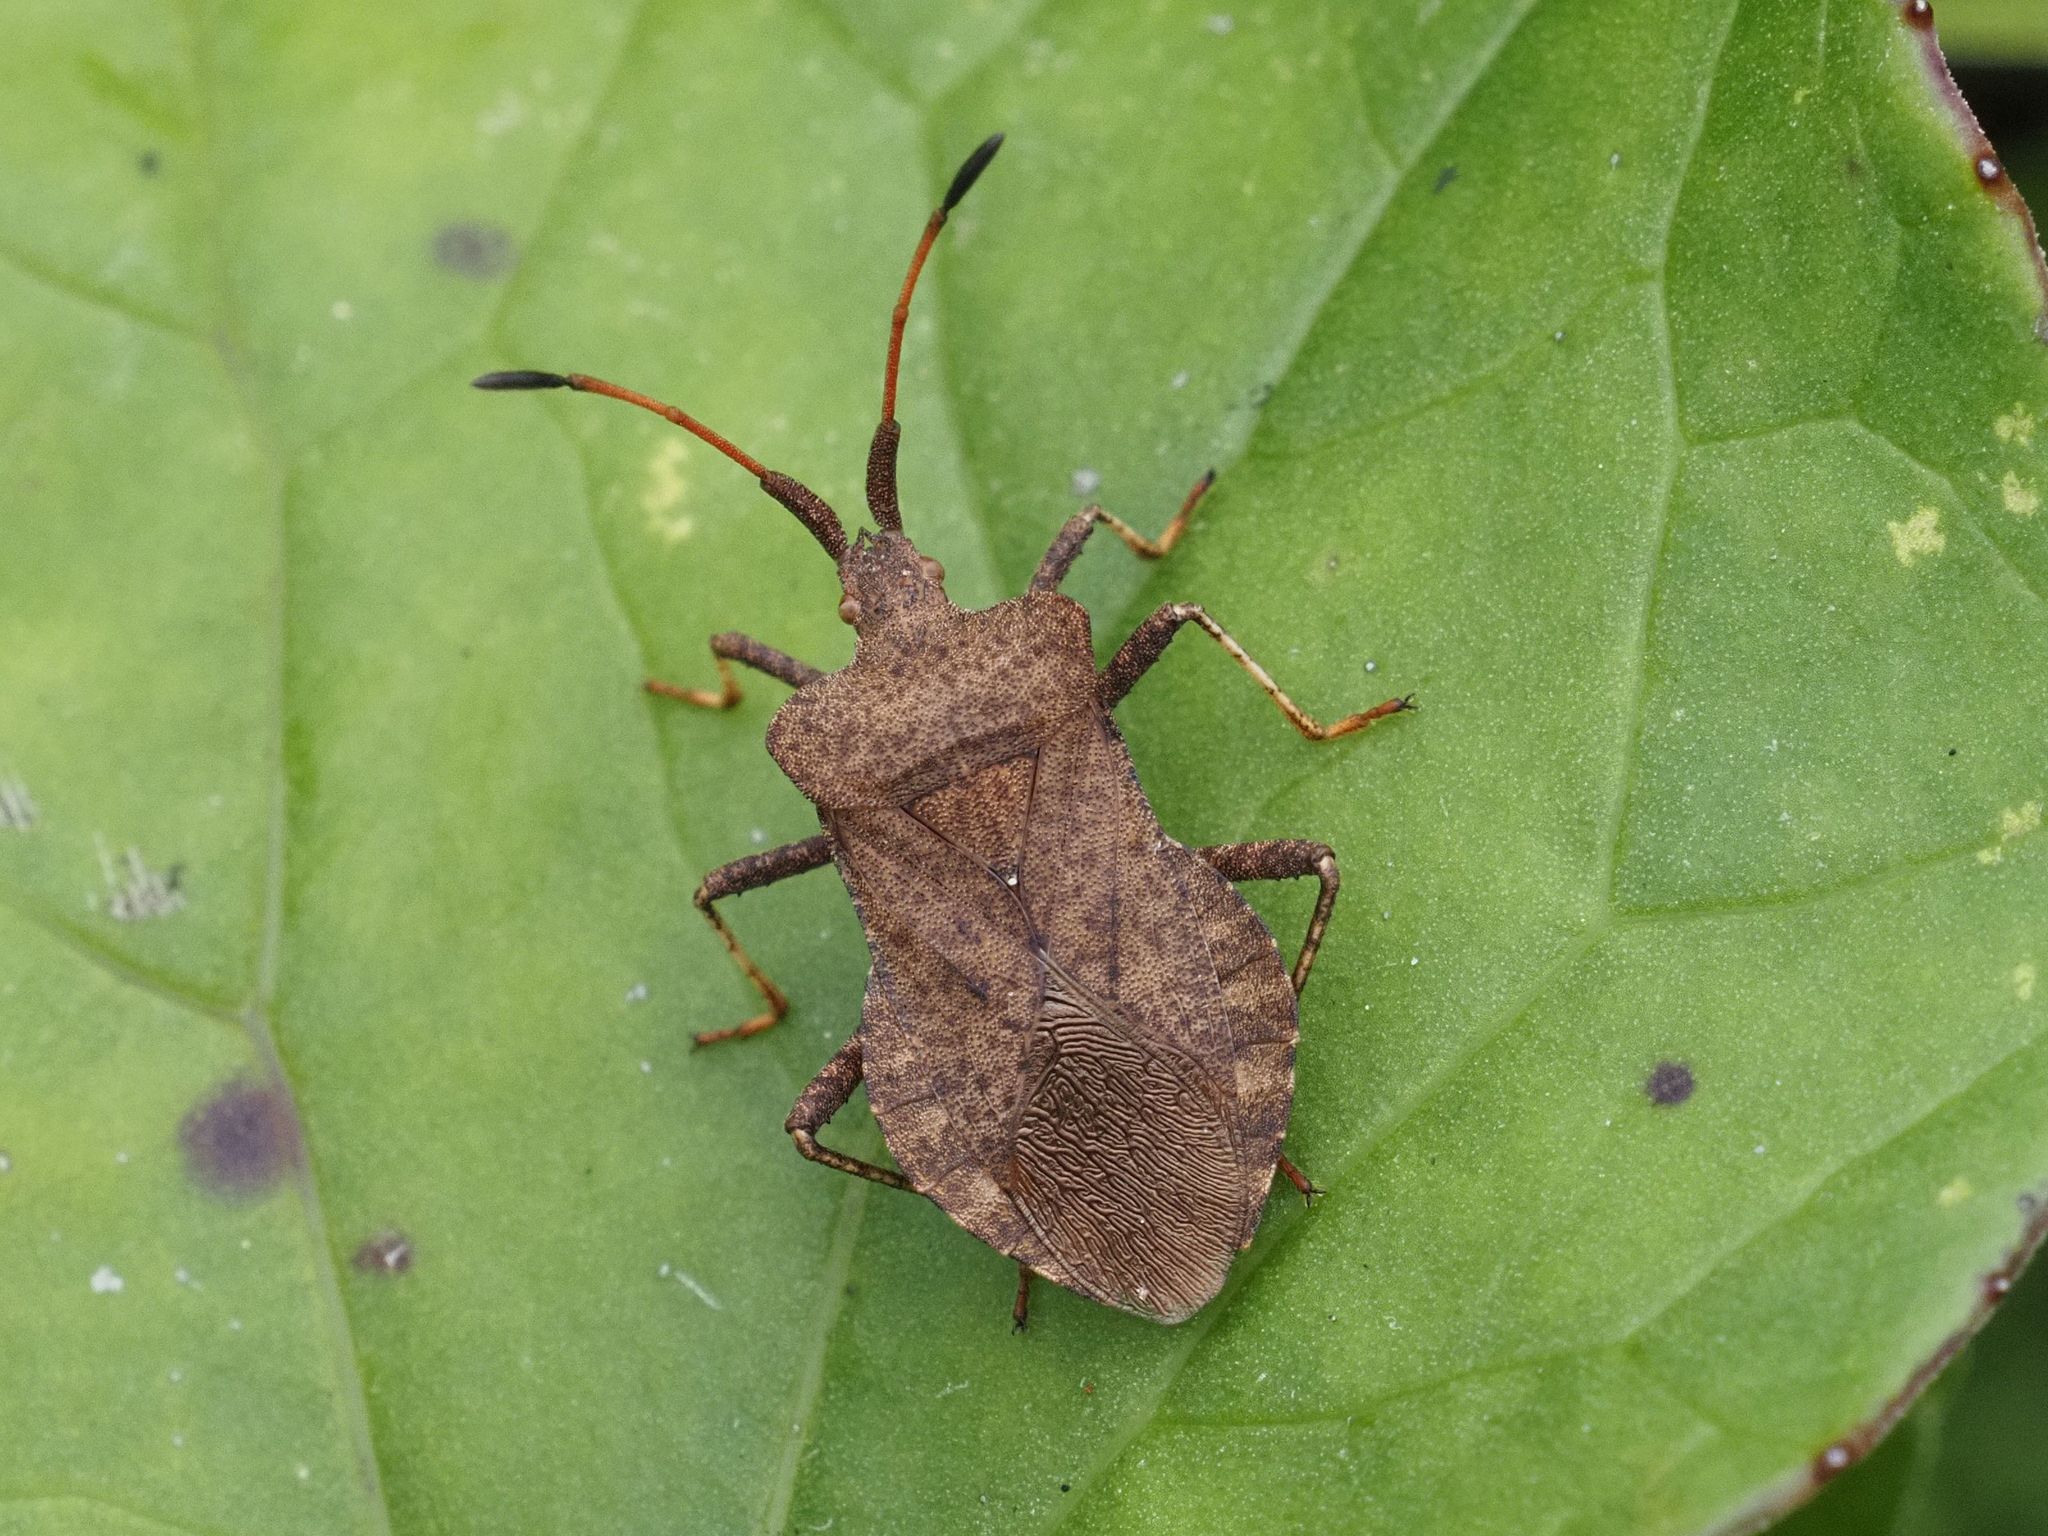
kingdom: Animalia
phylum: Arthropoda
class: Insecta
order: Hemiptera
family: Coreidae
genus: Coreus
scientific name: Coreus marginatus
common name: Dock bug
